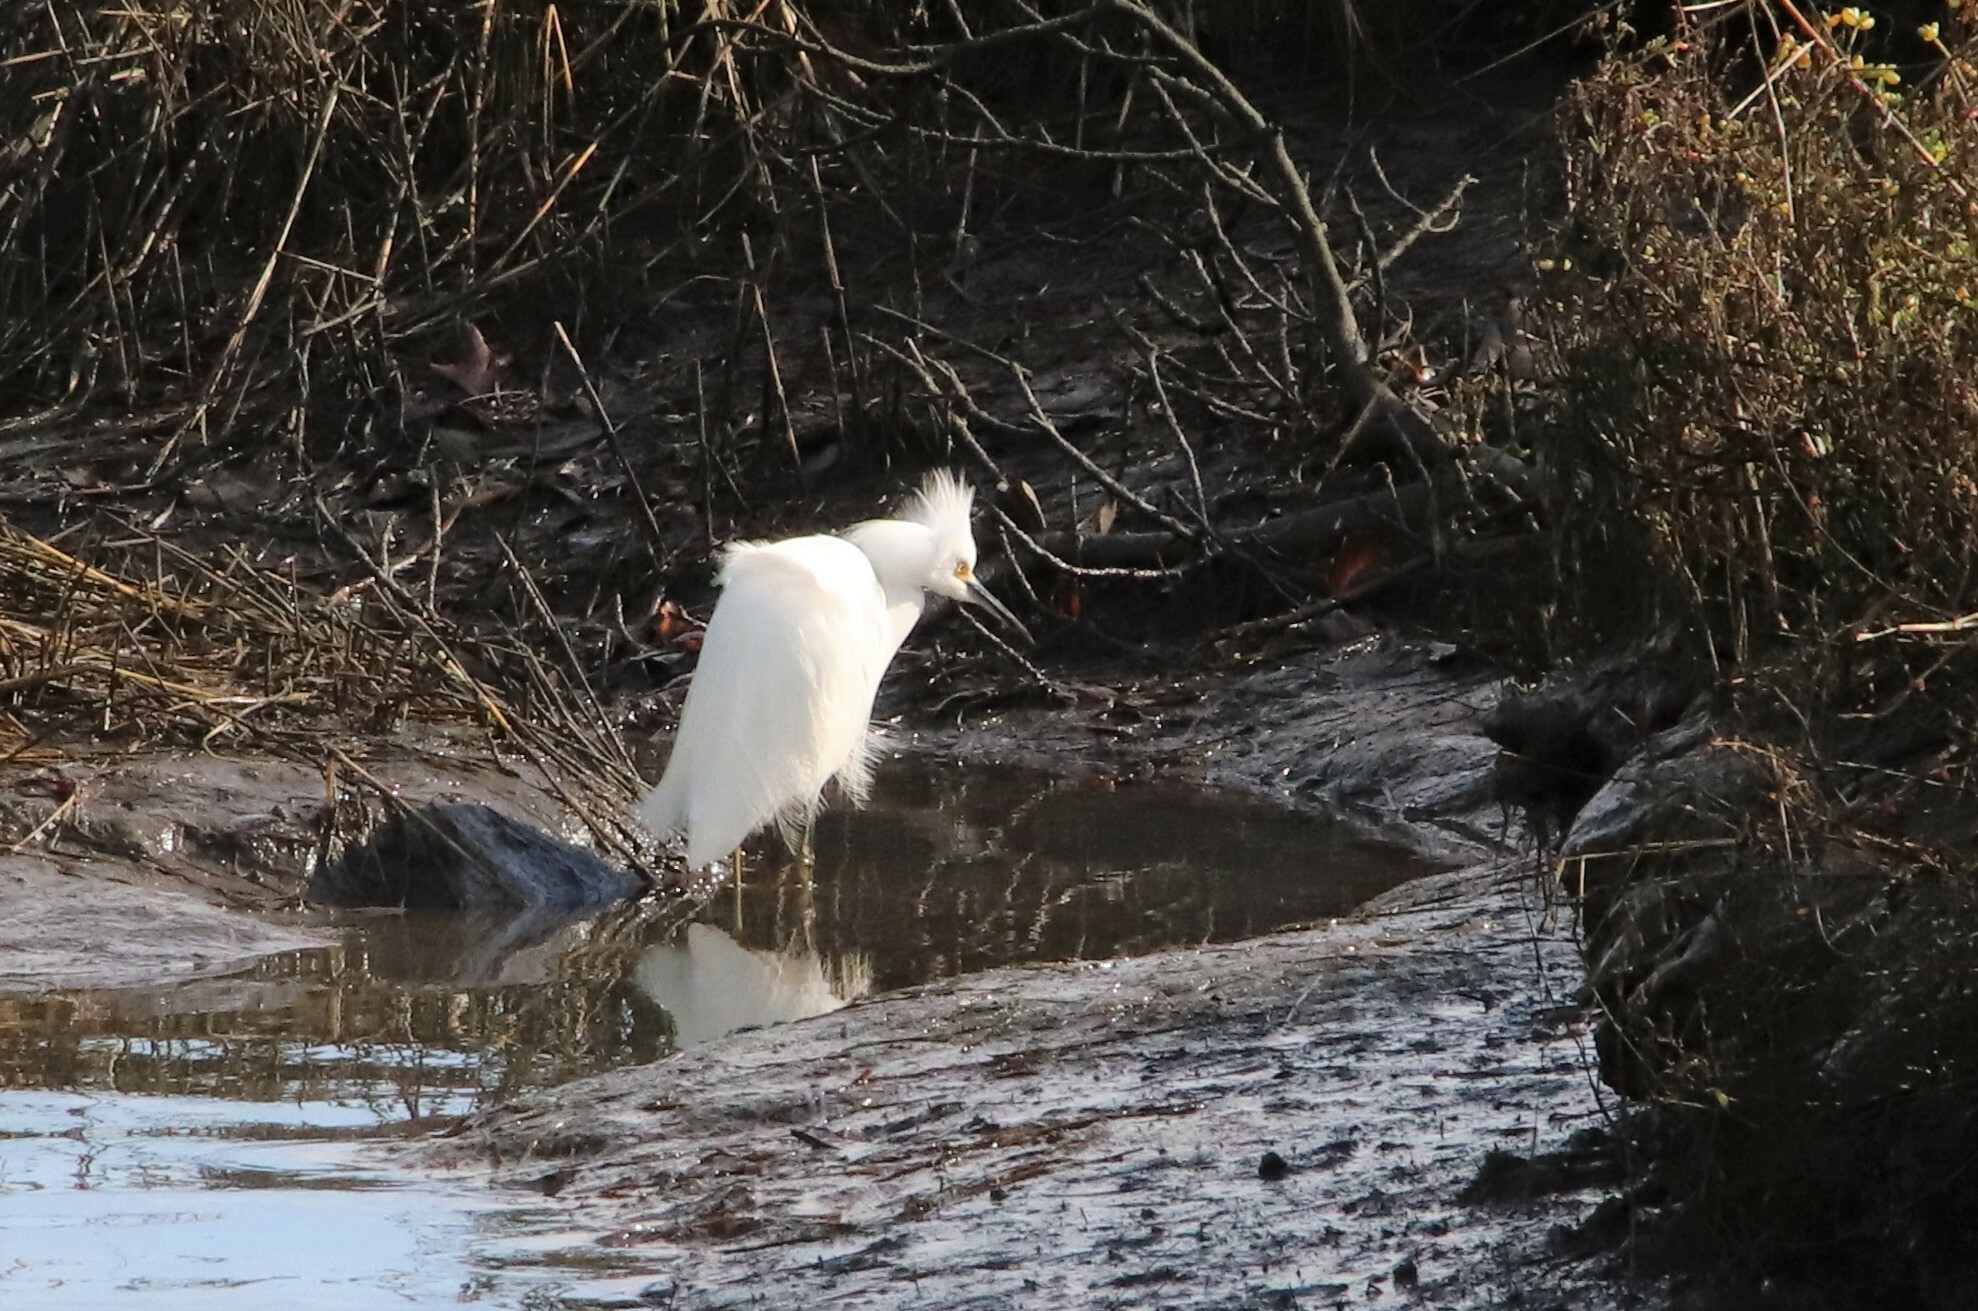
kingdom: Animalia
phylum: Chordata
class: Aves
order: Pelecaniformes
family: Ardeidae
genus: Egretta
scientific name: Egretta thula
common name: Snowy egret
